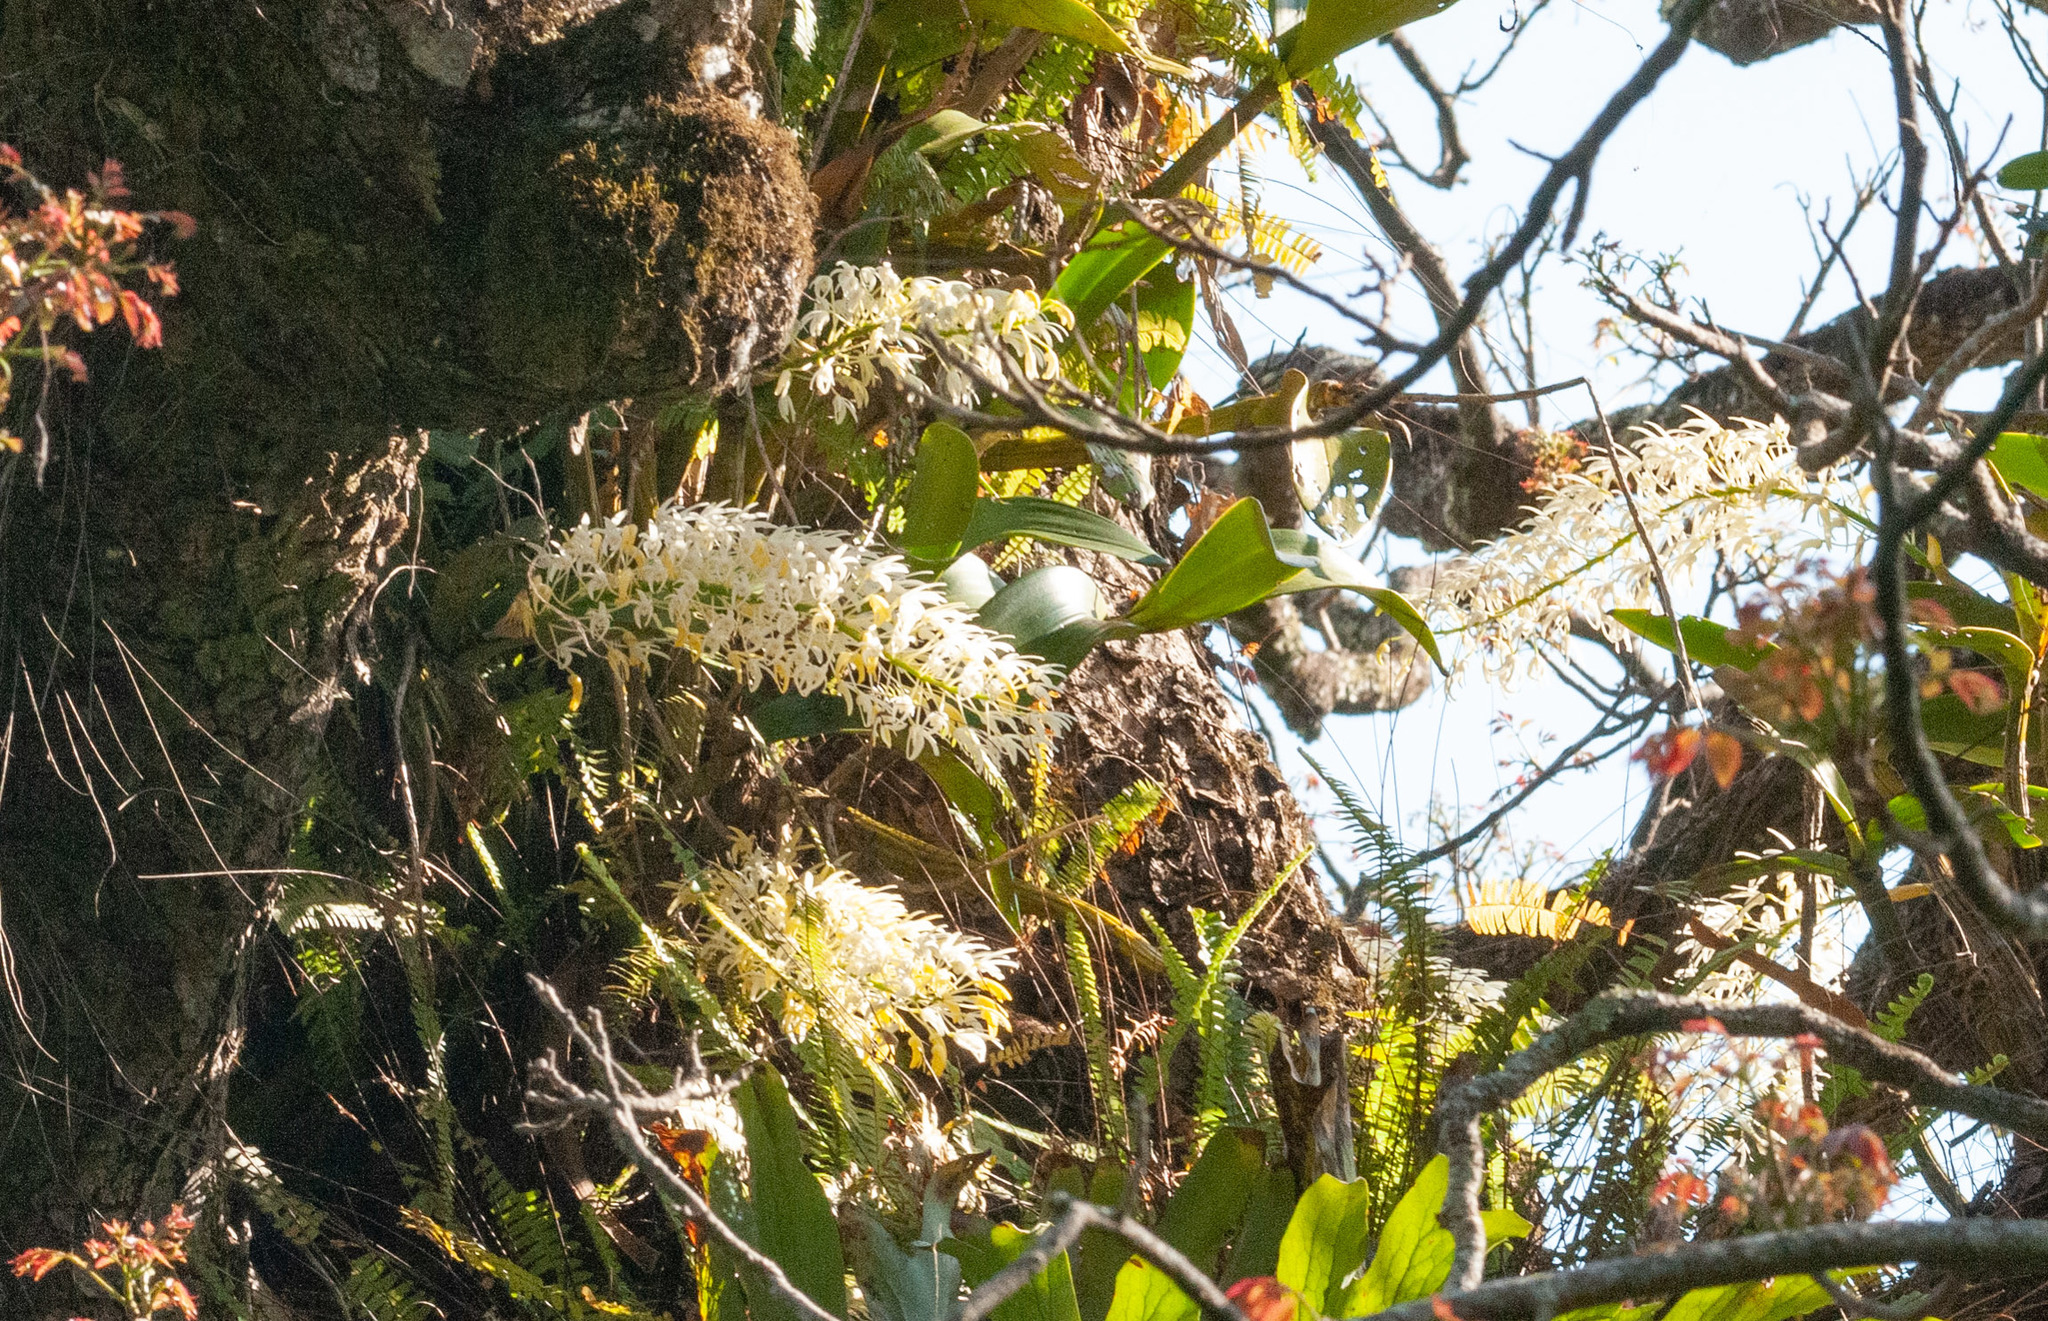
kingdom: Plantae
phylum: Tracheophyta
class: Liliopsida
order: Asparagales
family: Orchidaceae
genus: Dendrobium
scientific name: Dendrobium speciosum
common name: Rock-lily
